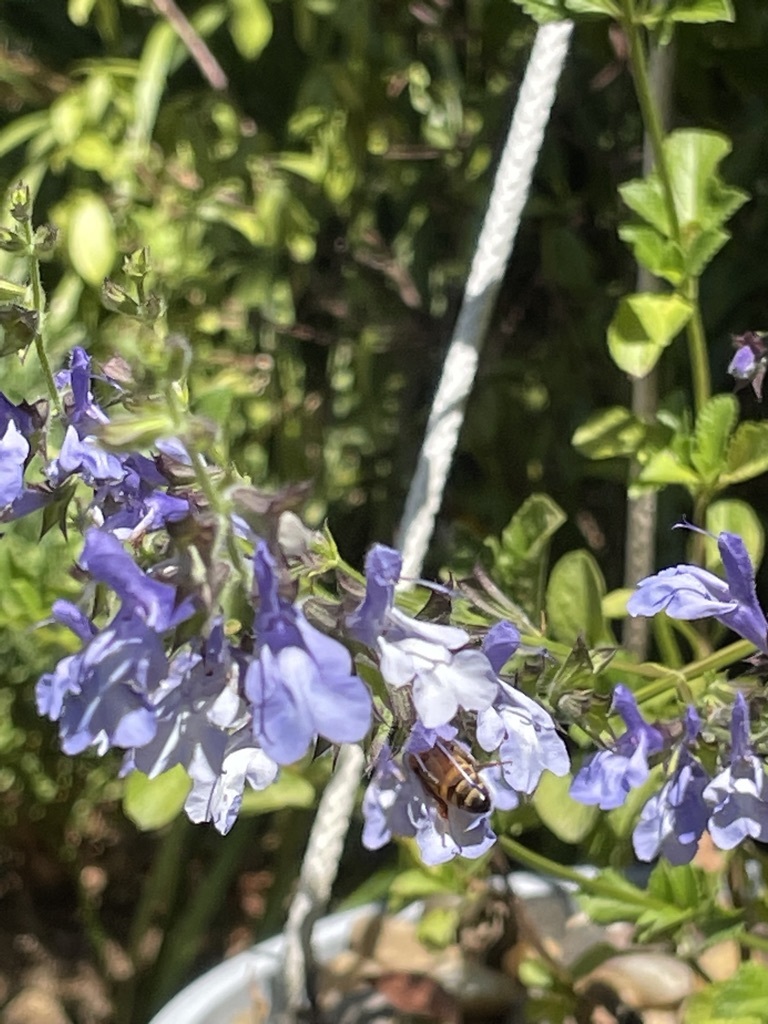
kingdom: Animalia
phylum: Arthropoda
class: Insecta
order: Hymenoptera
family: Apidae
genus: Apis
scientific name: Apis mellifera
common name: Honey bee
